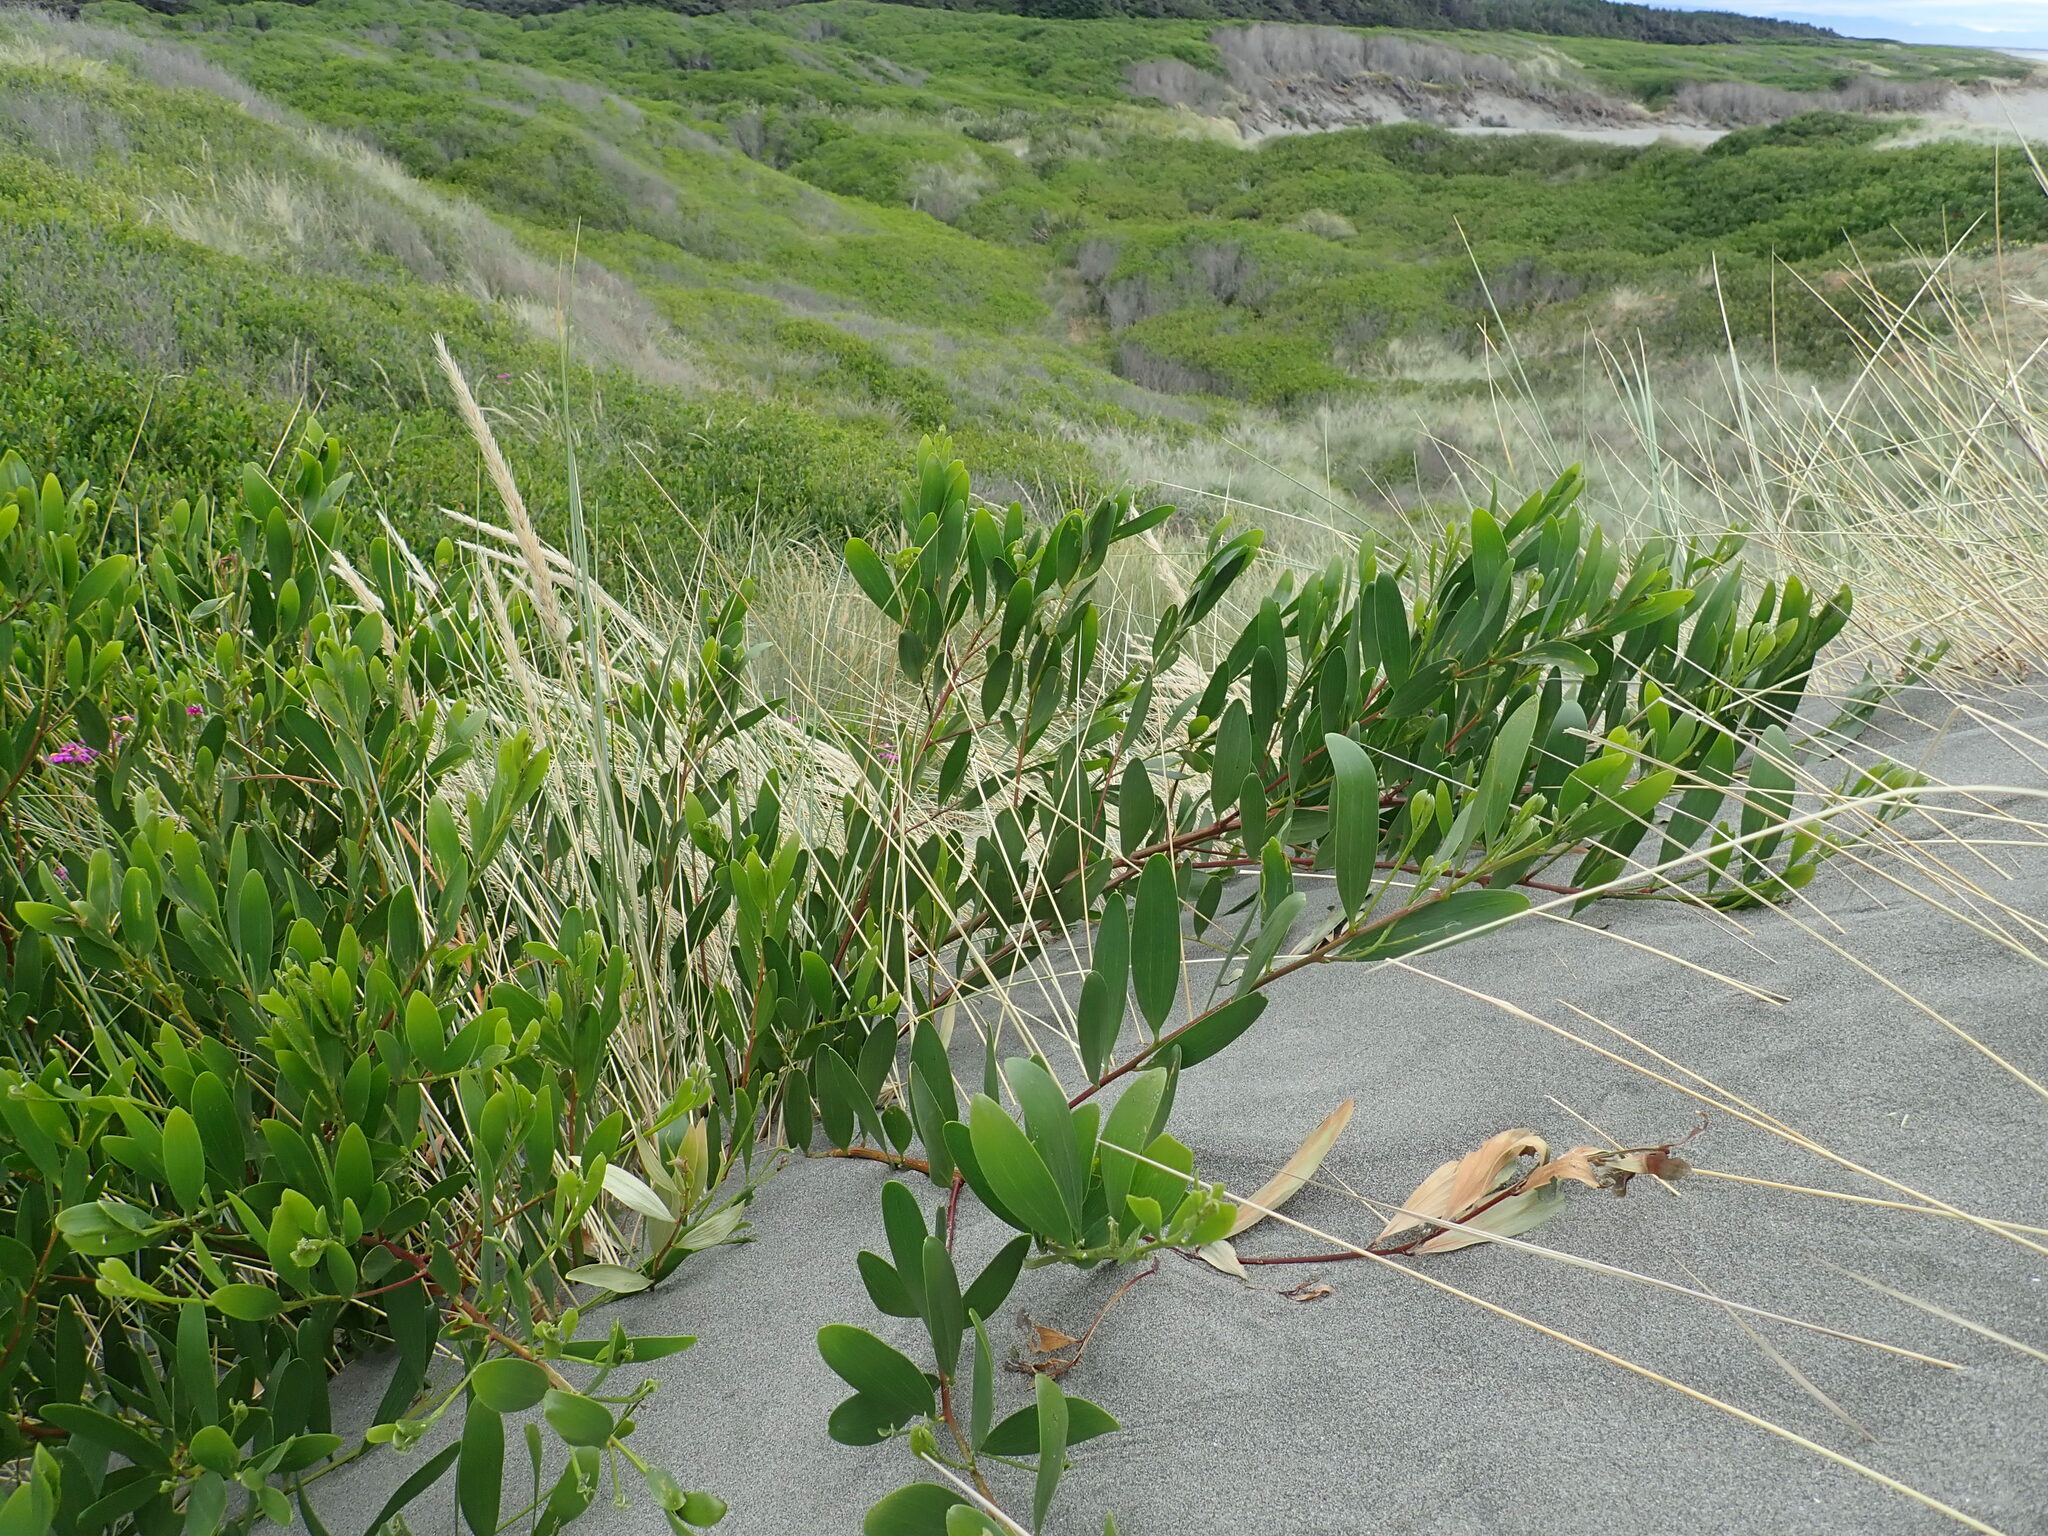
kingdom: Plantae
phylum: Tracheophyta
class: Magnoliopsida
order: Fabales
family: Fabaceae
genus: Acacia
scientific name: Acacia longifolia
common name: Sydney golden wattle
